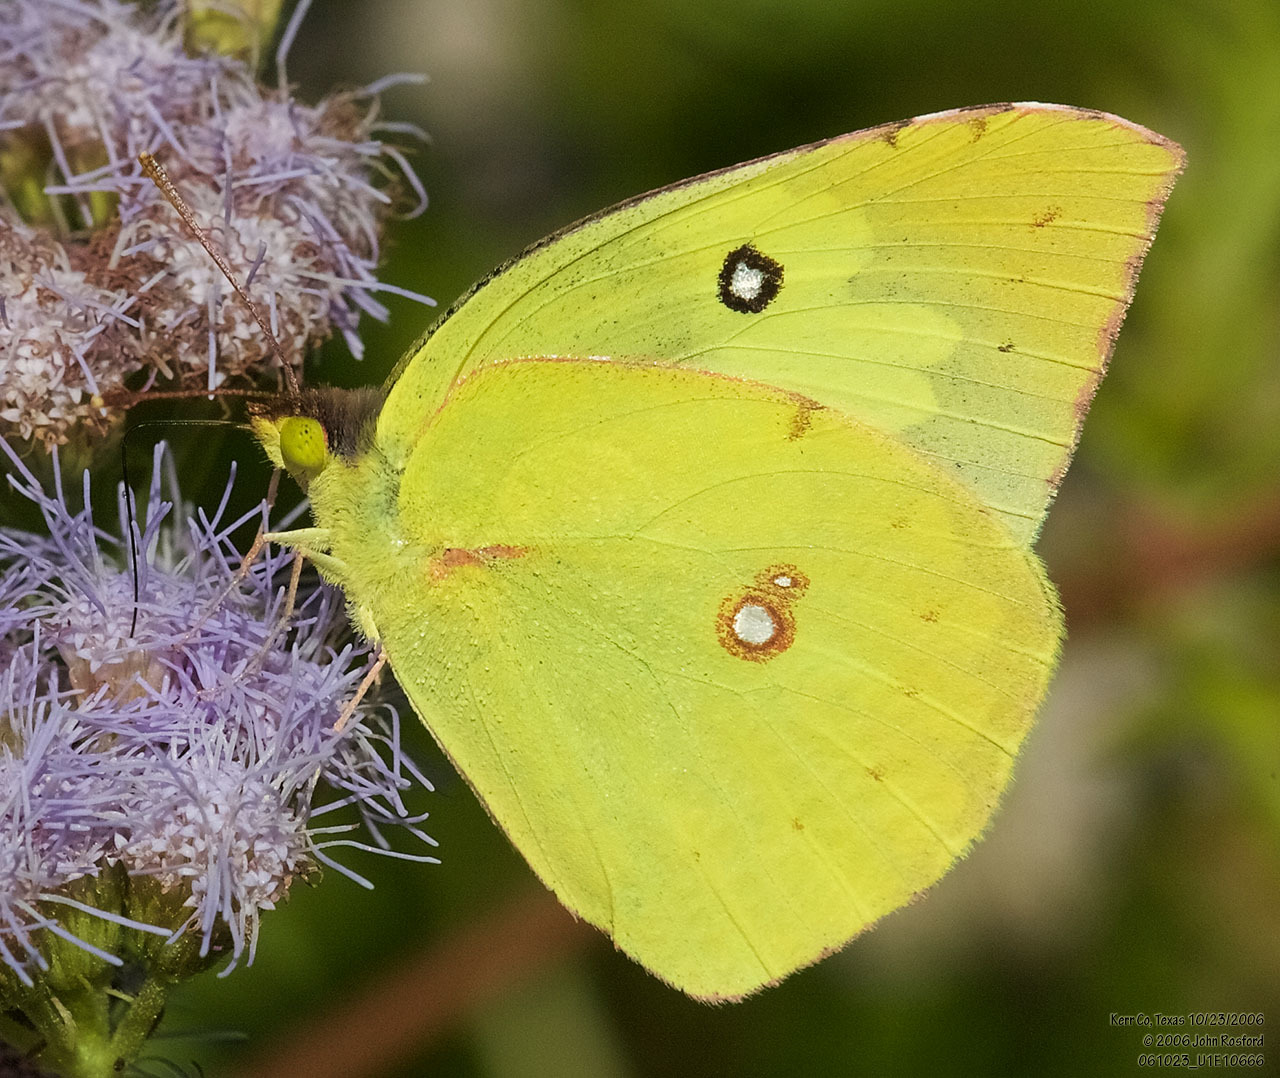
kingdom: Animalia
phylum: Arthropoda
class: Insecta
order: Lepidoptera
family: Pieridae
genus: Zerene
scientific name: Zerene cesonia
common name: Southern dogface
